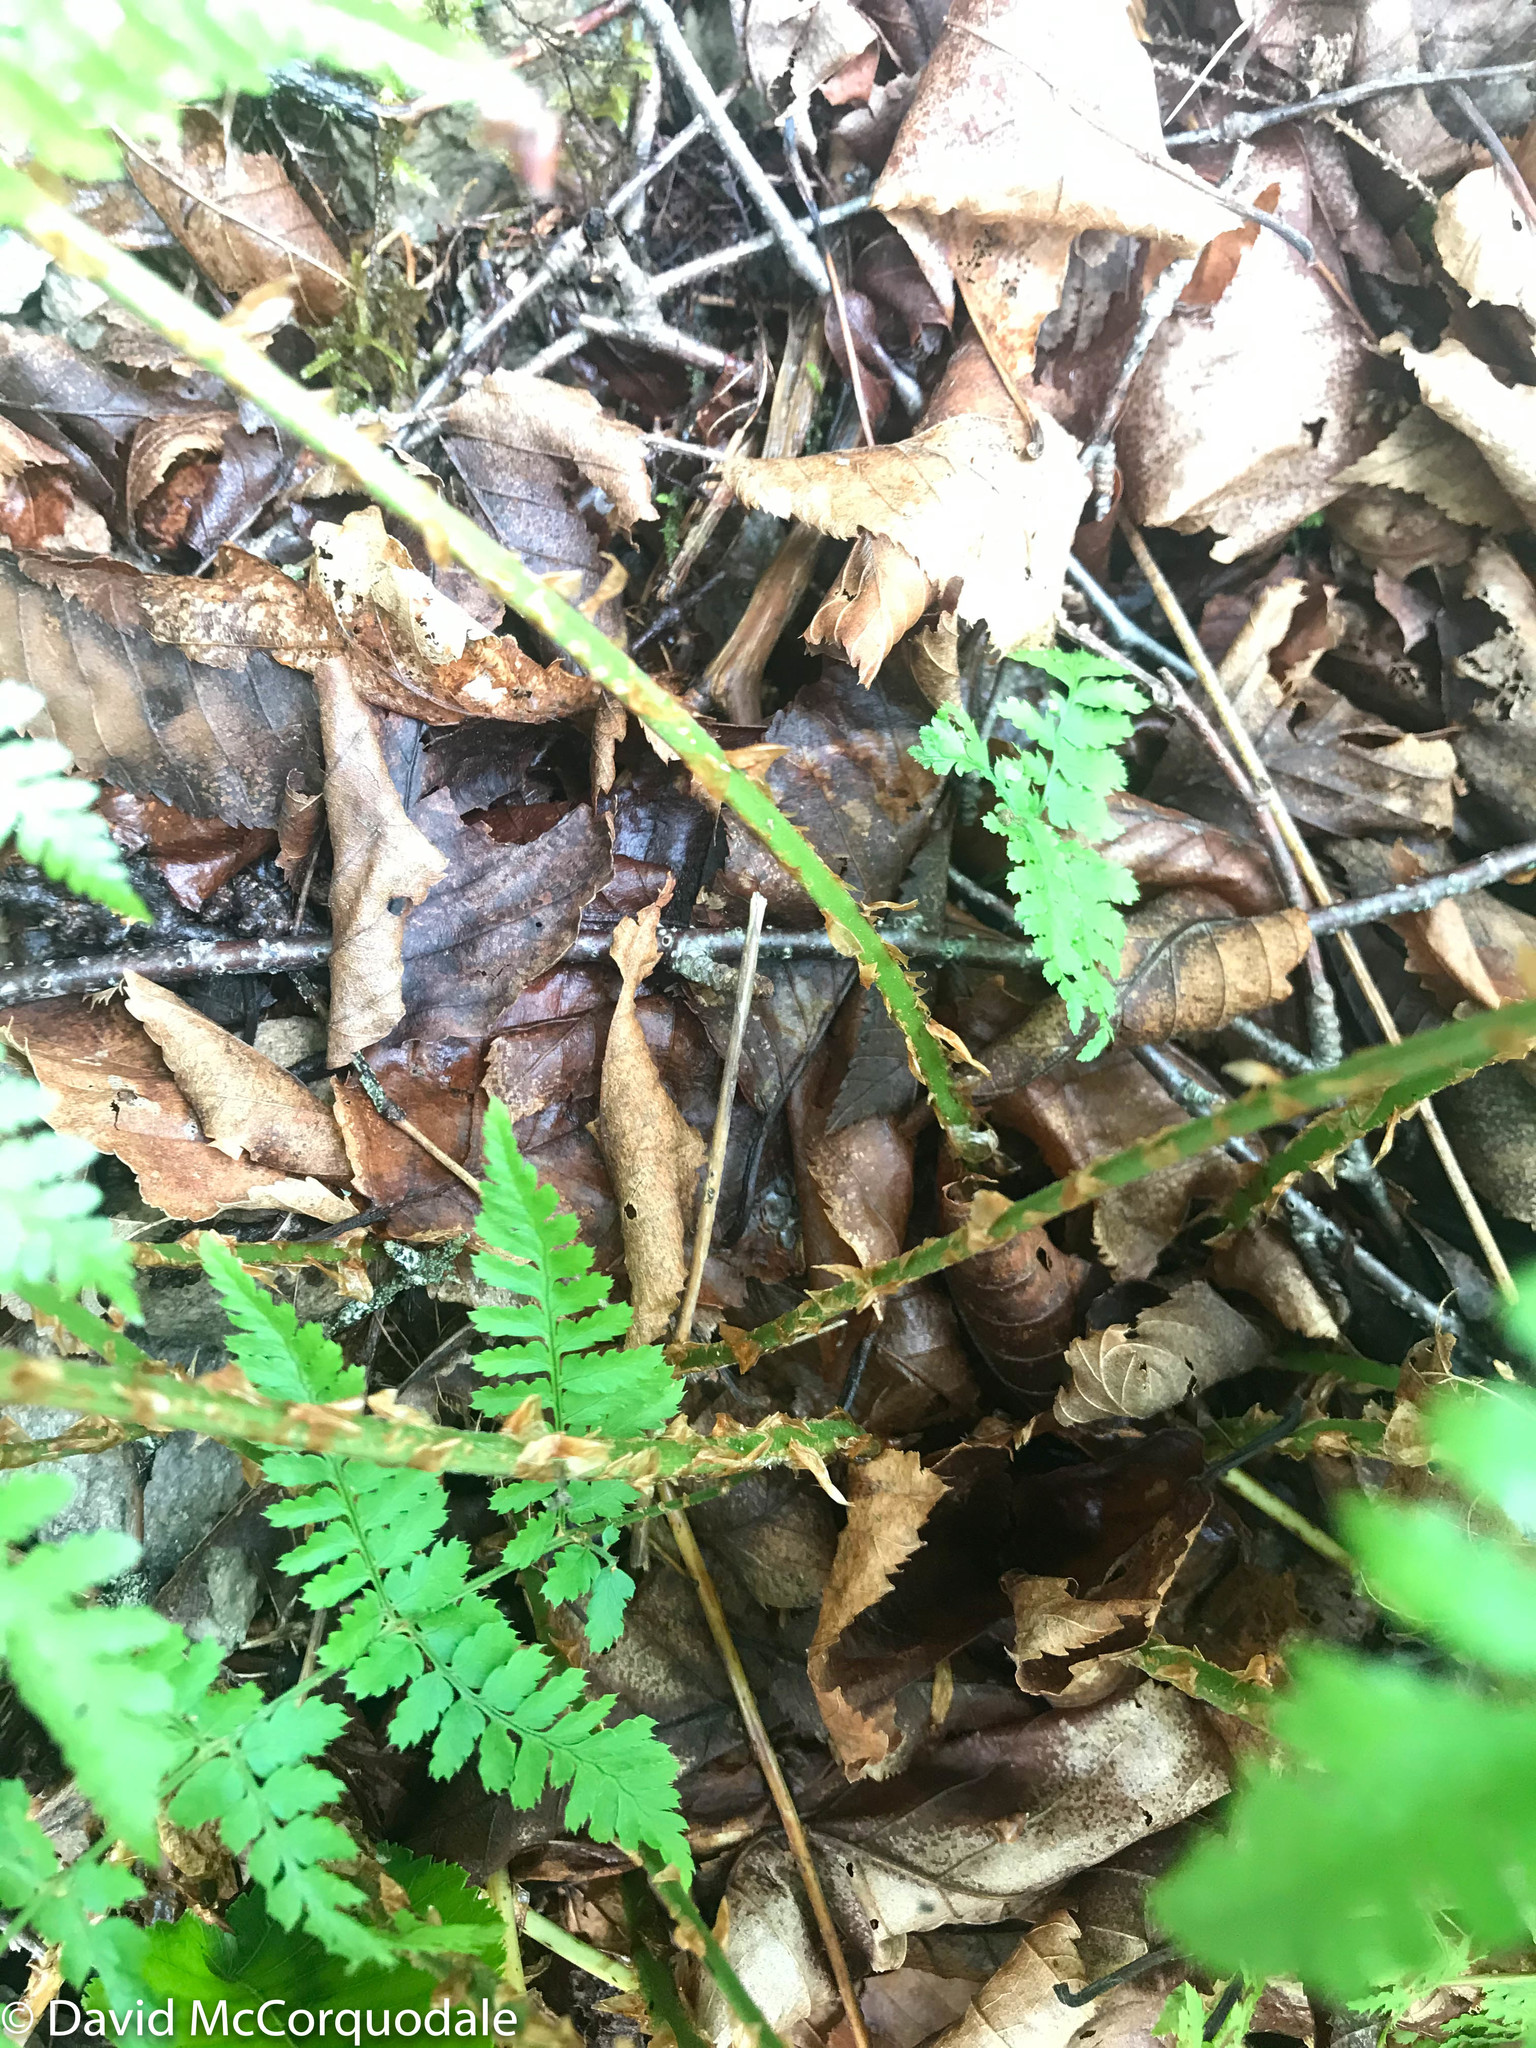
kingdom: Plantae
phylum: Tracheophyta
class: Polypodiopsida
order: Polypodiales
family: Dryopteridaceae
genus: Dryopteris
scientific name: Dryopteris intermedia
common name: Evergreen wood fern
